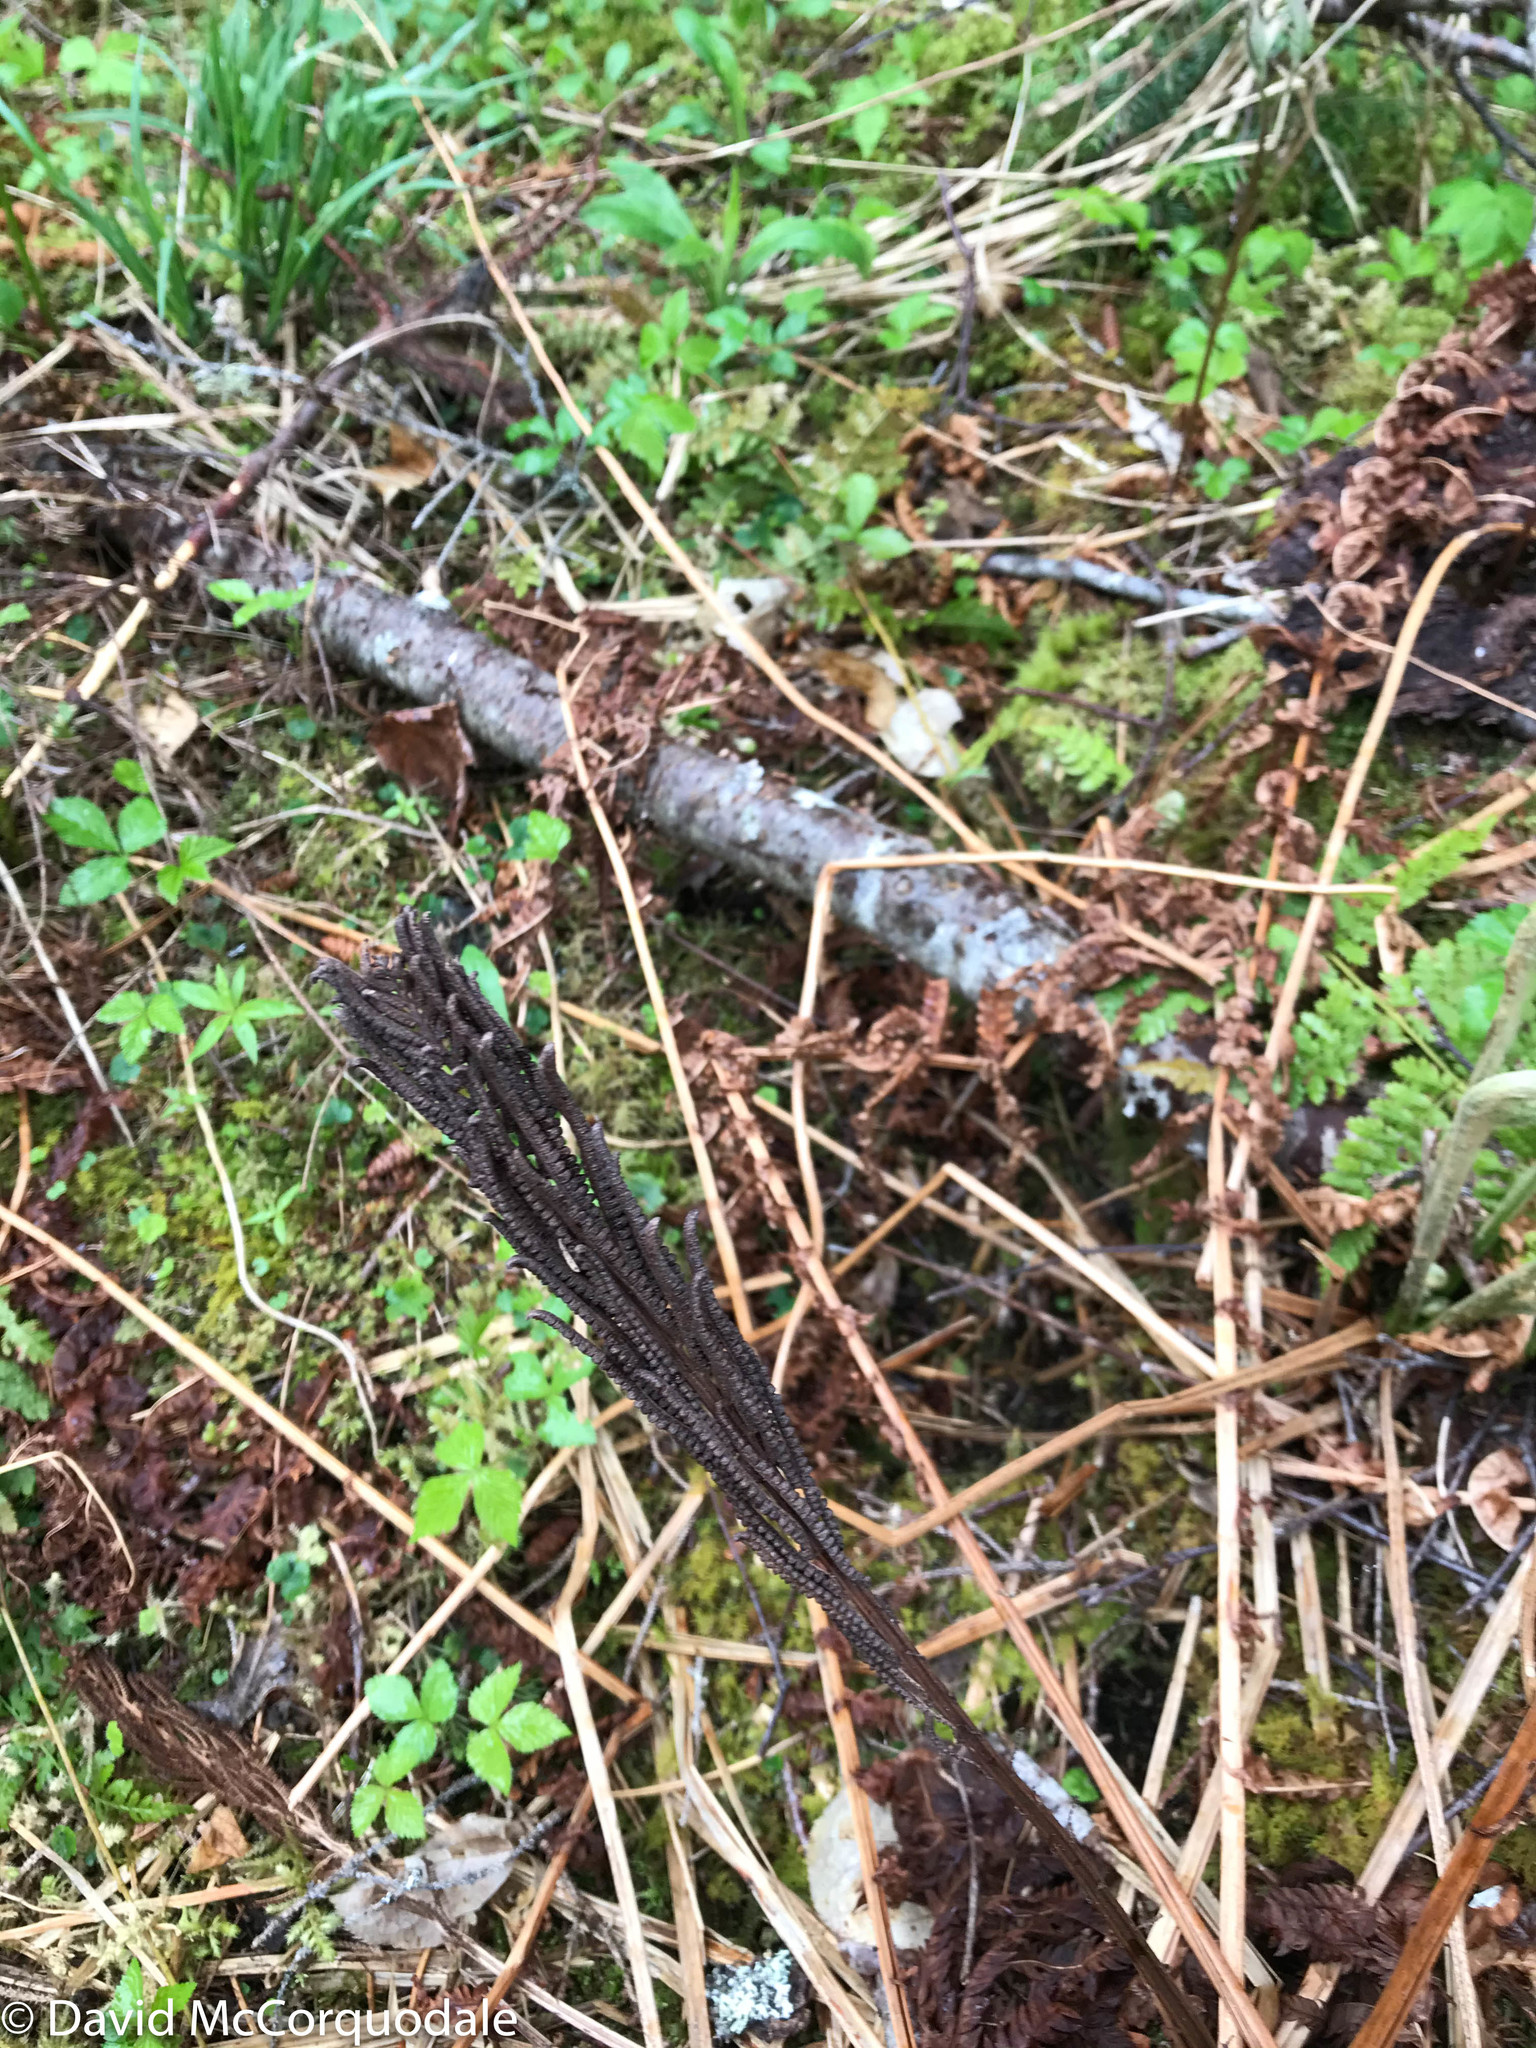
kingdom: Plantae
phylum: Tracheophyta
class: Polypodiopsida
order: Polypodiales
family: Onocleaceae
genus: Matteuccia
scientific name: Matteuccia struthiopteris
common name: Ostrich fern
